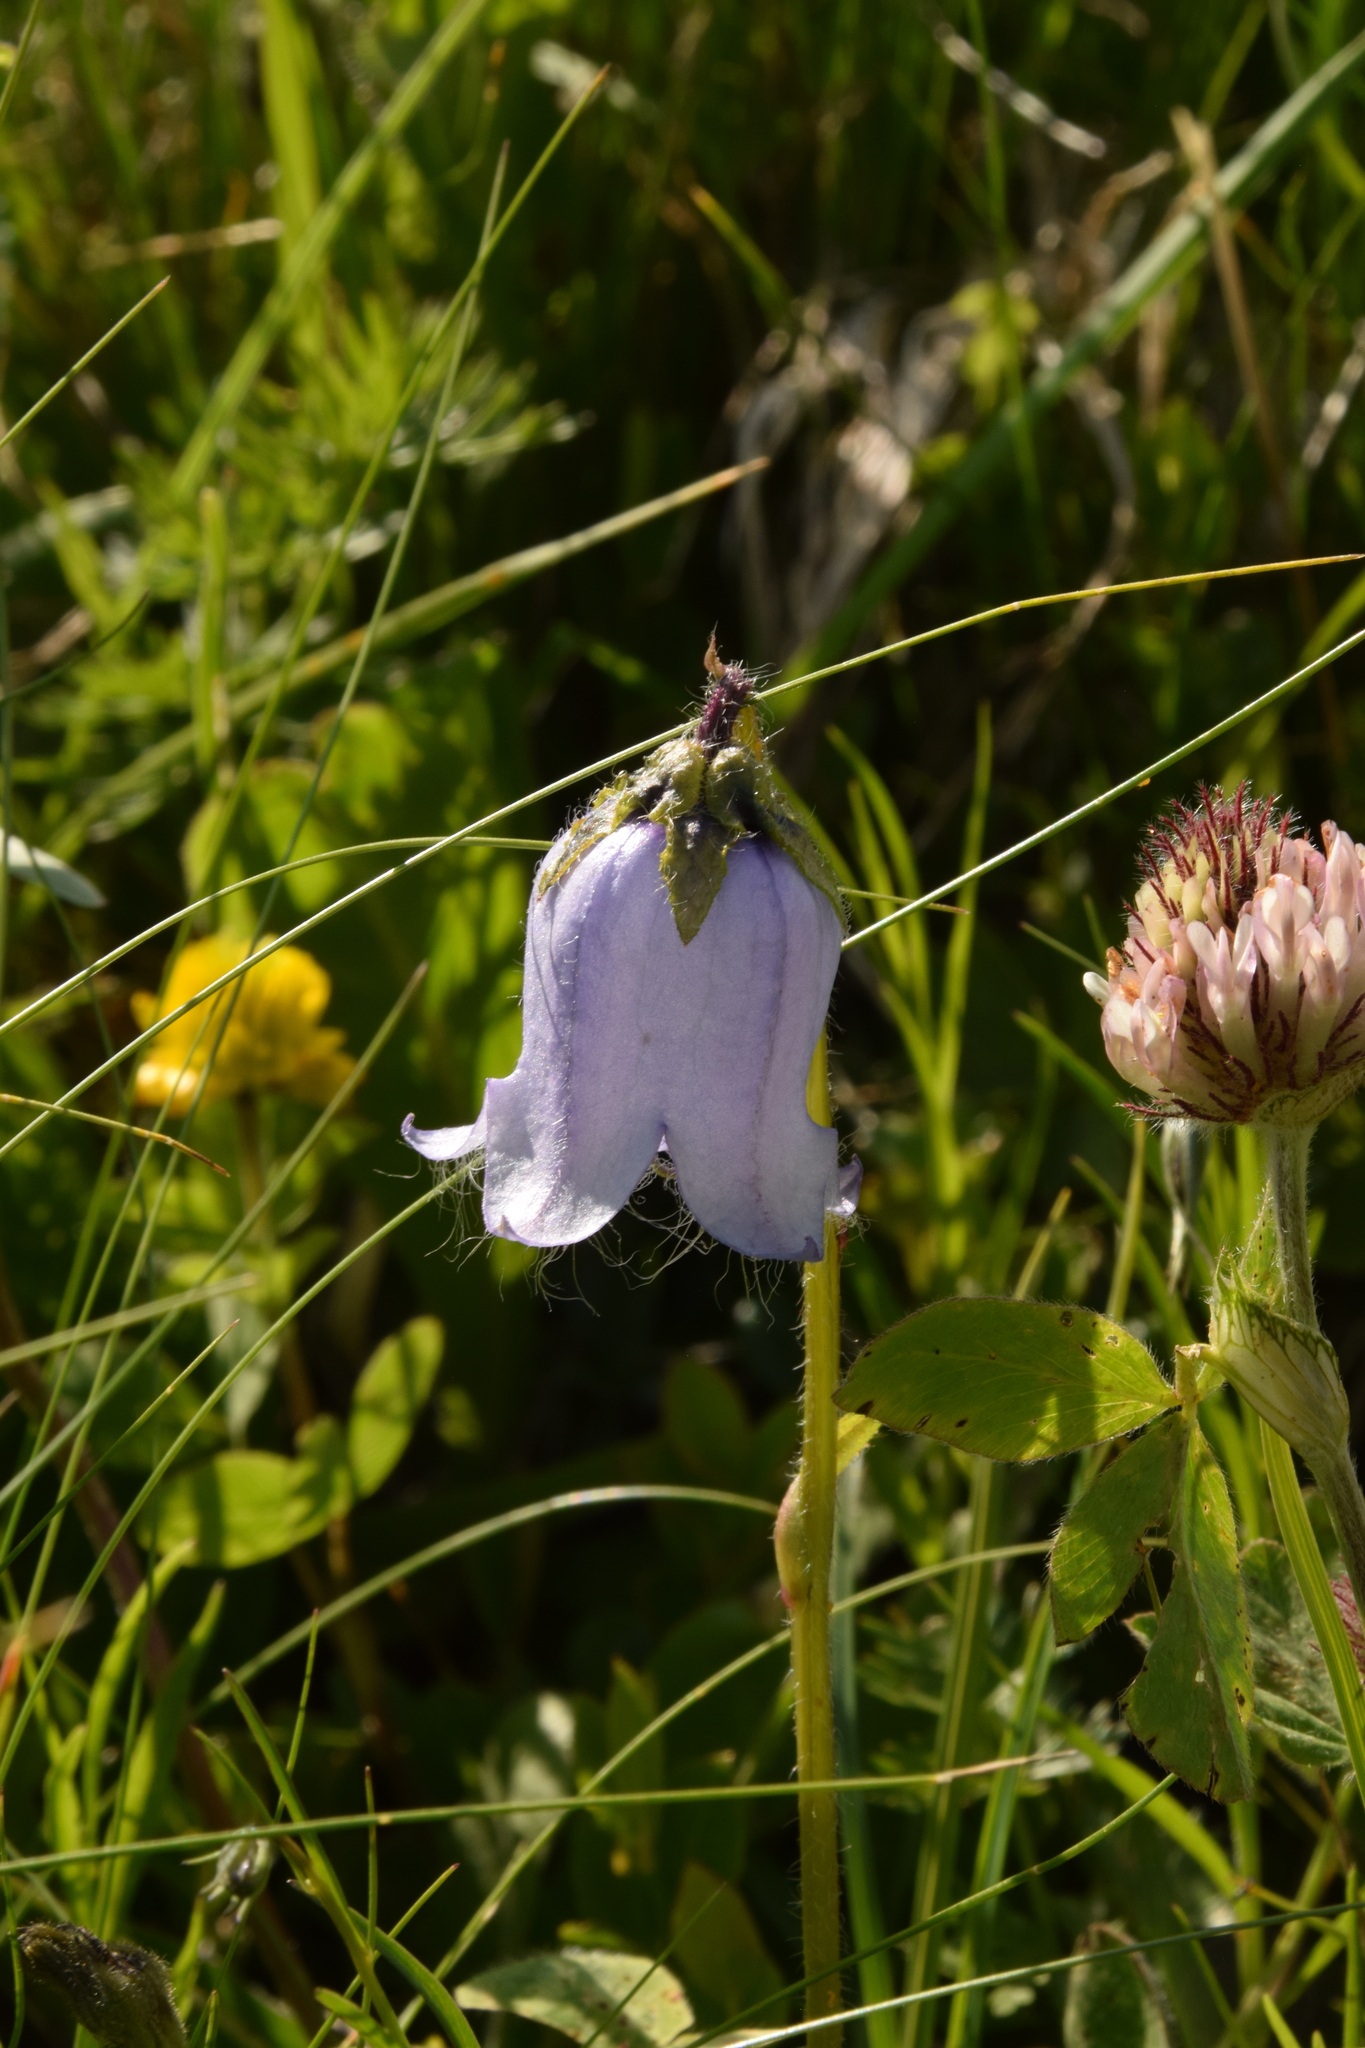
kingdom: Plantae
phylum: Tracheophyta
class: Magnoliopsida
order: Asterales
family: Campanulaceae
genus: Campanula
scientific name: Campanula barbata
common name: Bearded bellflower
